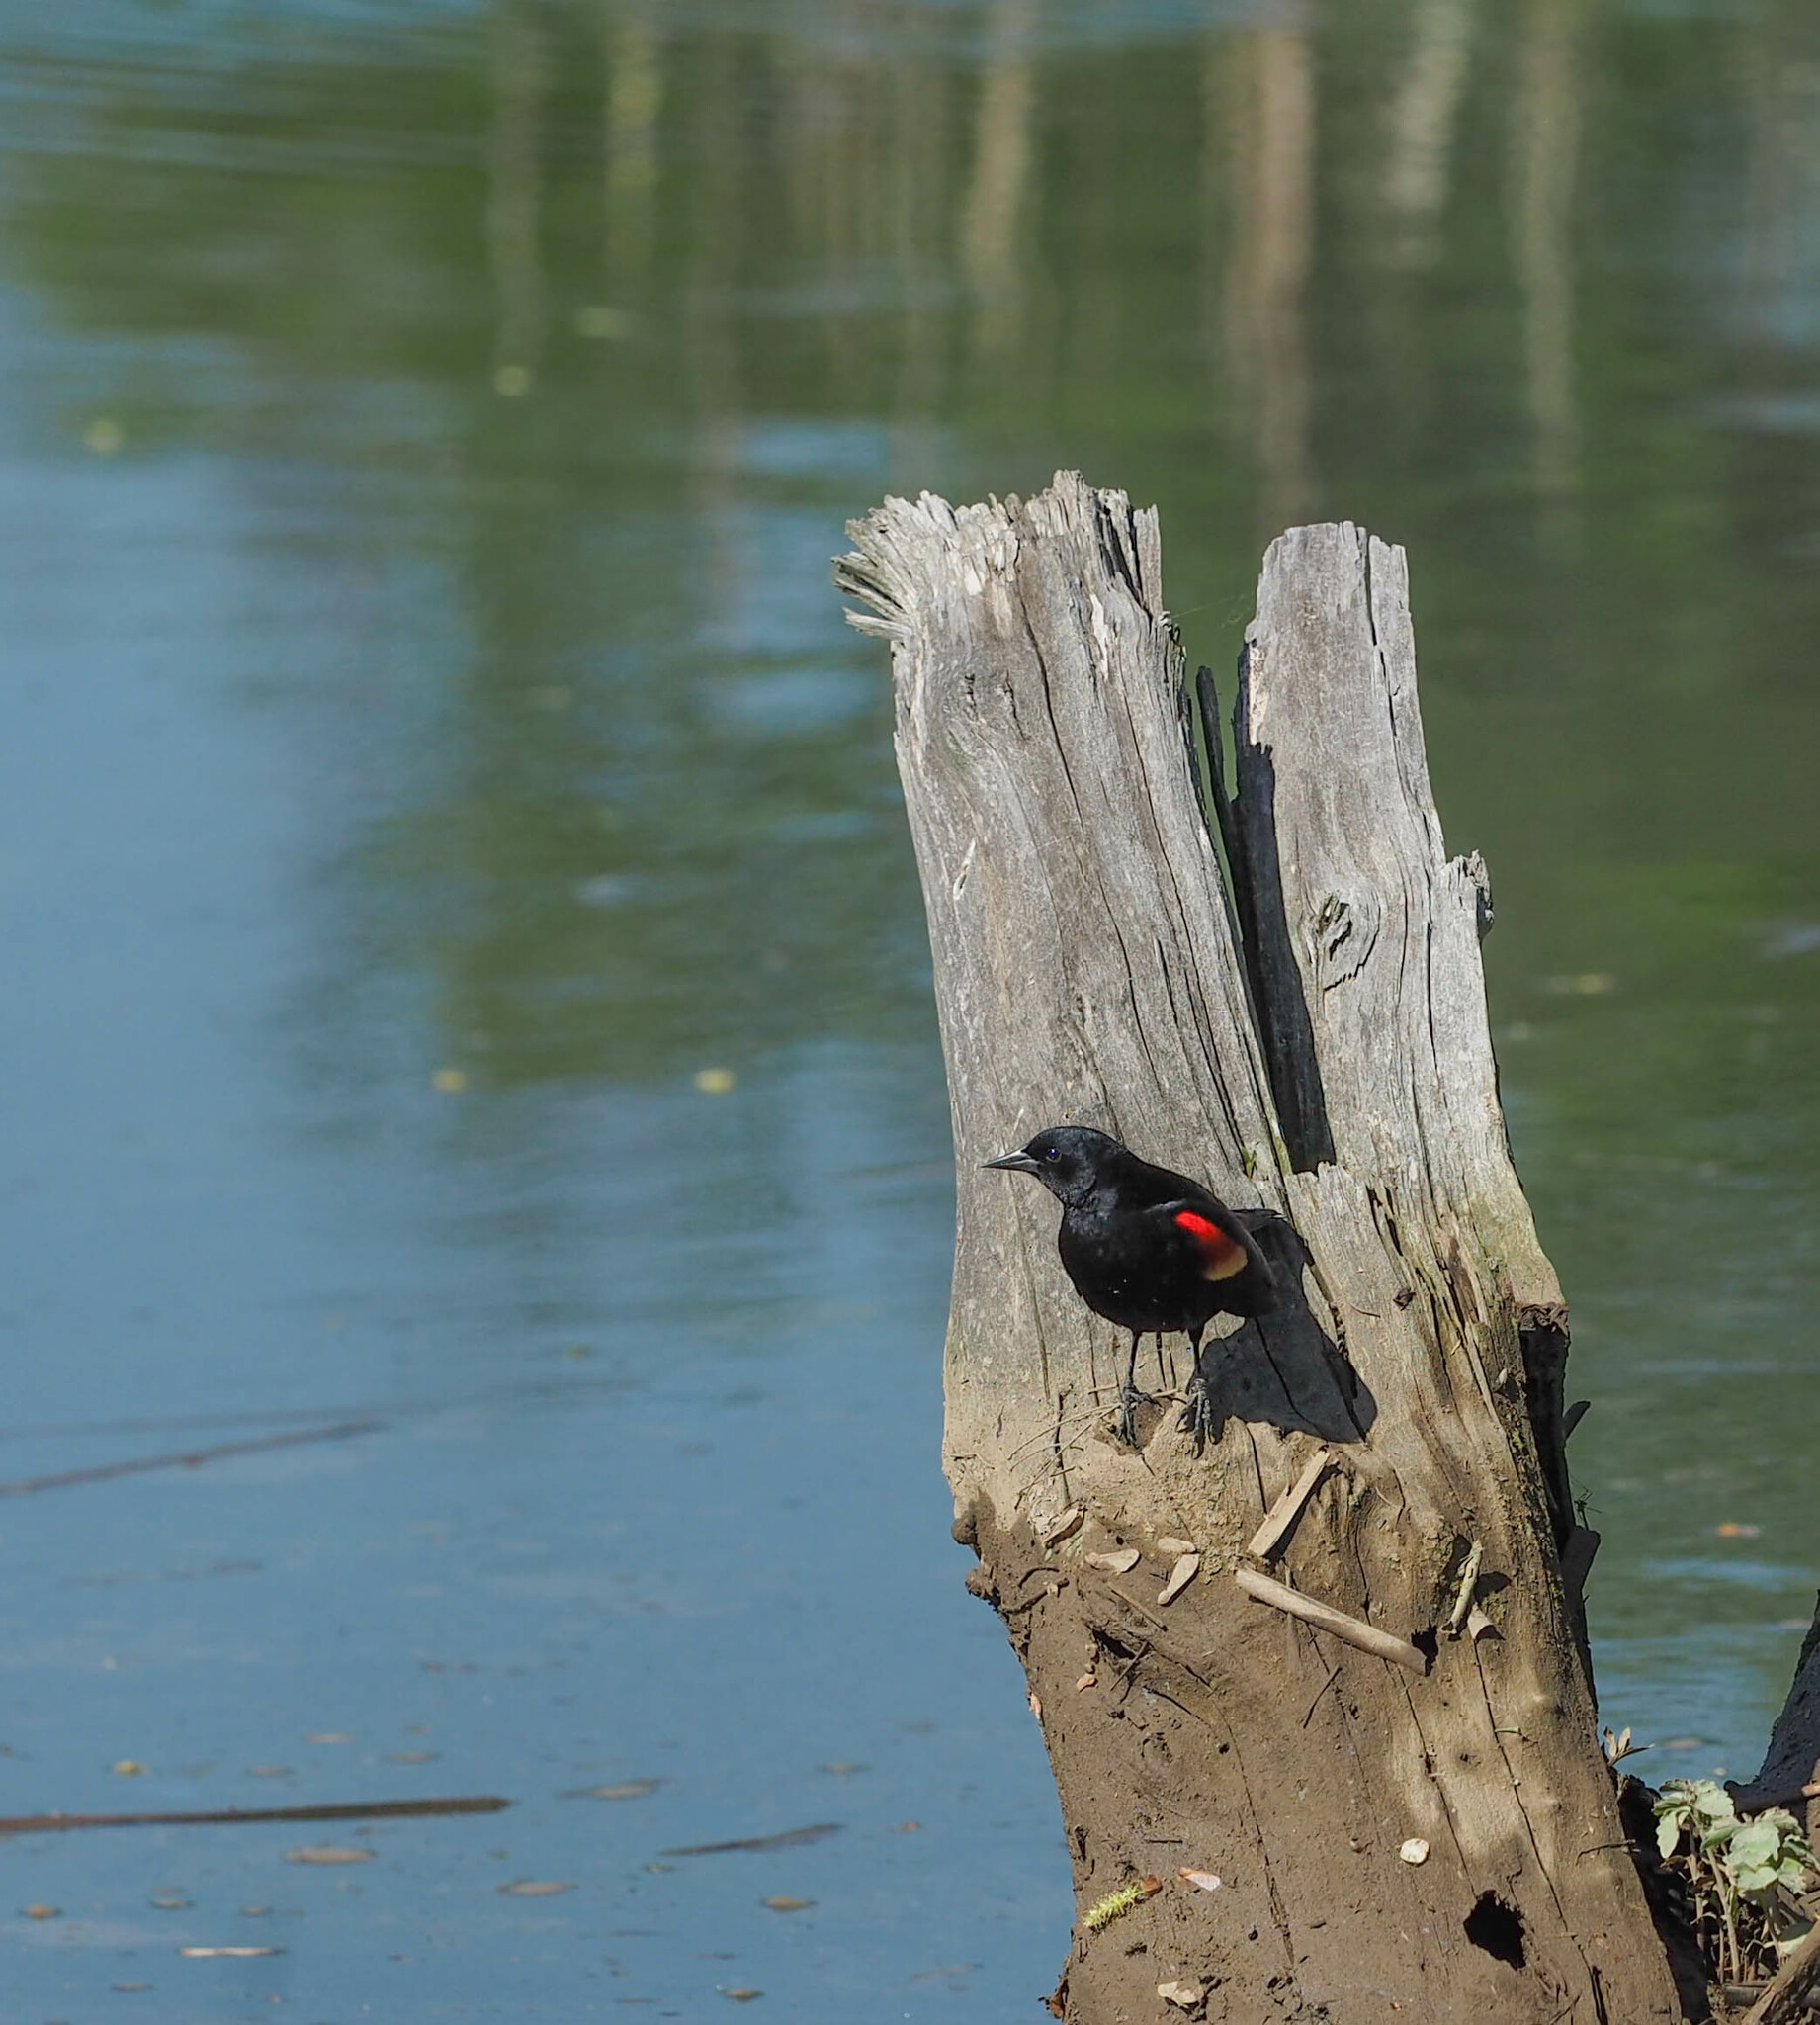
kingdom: Animalia
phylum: Chordata
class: Aves
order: Passeriformes
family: Icteridae
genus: Agelaius
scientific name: Agelaius phoeniceus
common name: Red-winged blackbird
